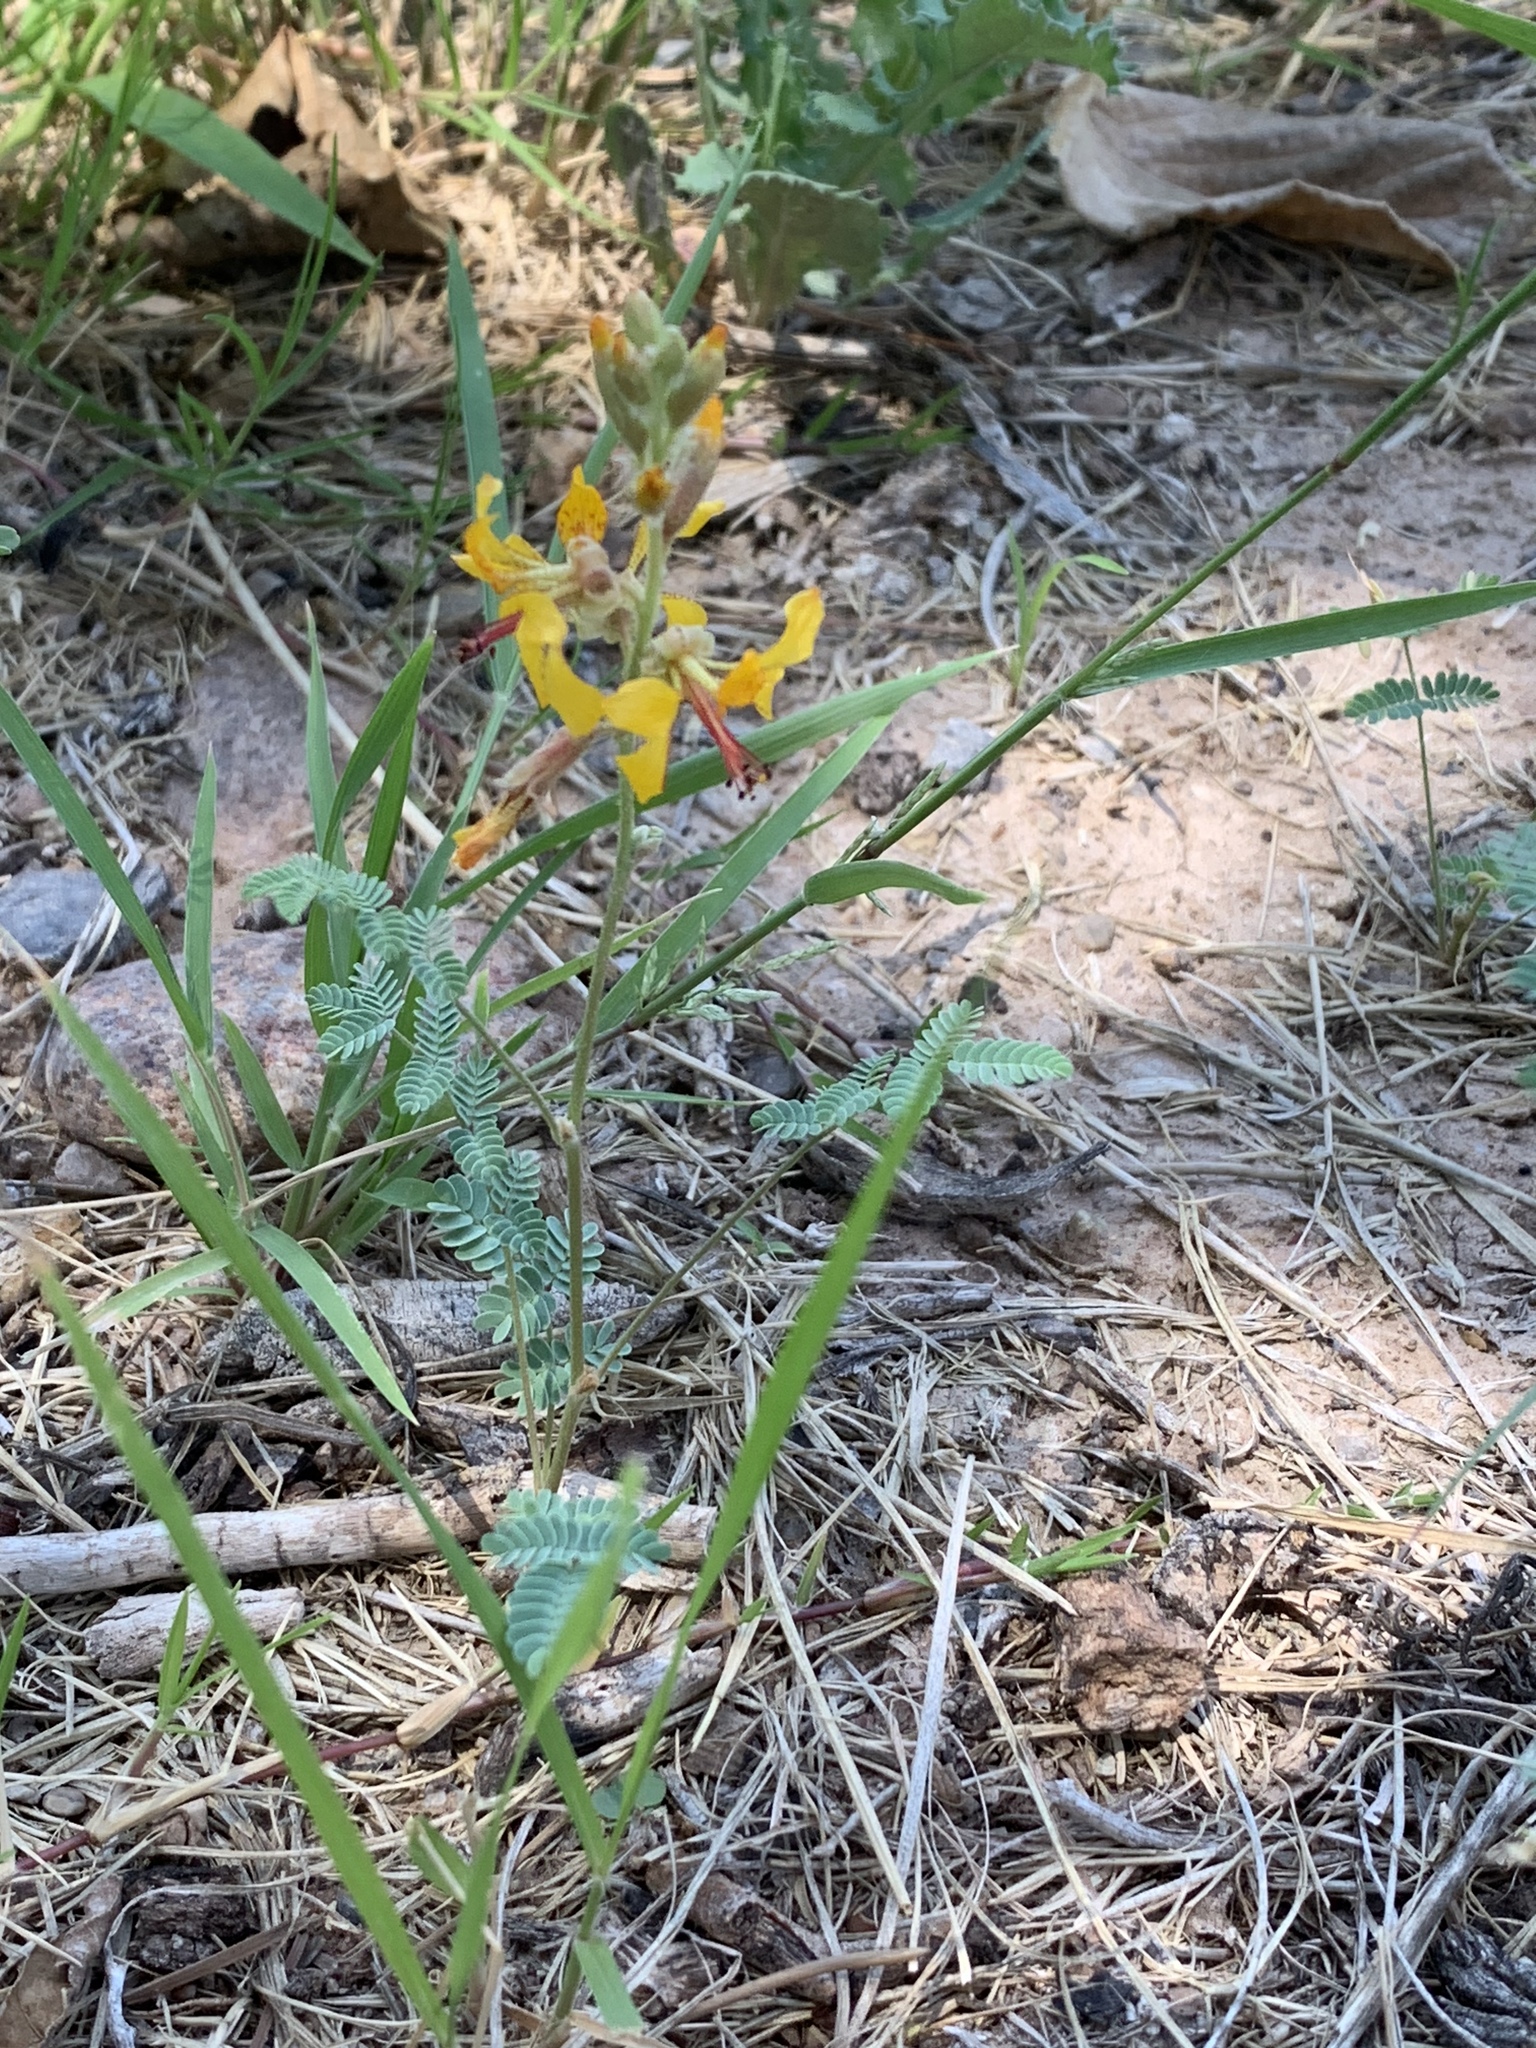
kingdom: Plantae
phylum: Tracheophyta
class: Magnoliopsida
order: Fabales
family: Fabaceae
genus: Hoffmannseggia
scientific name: Hoffmannseggia glauca
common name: Pignut
